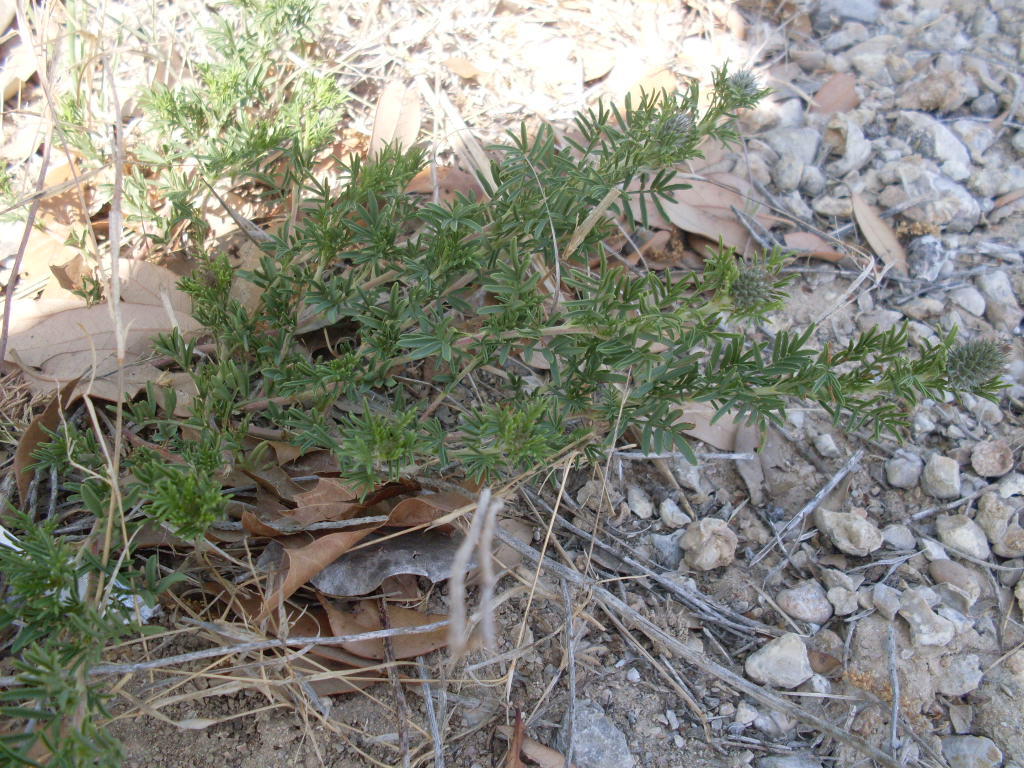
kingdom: Plantae
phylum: Tracheophyta
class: Magnoliopsida
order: Fabales
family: Fabaceae
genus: Dalea
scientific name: Dalea reverchonii
